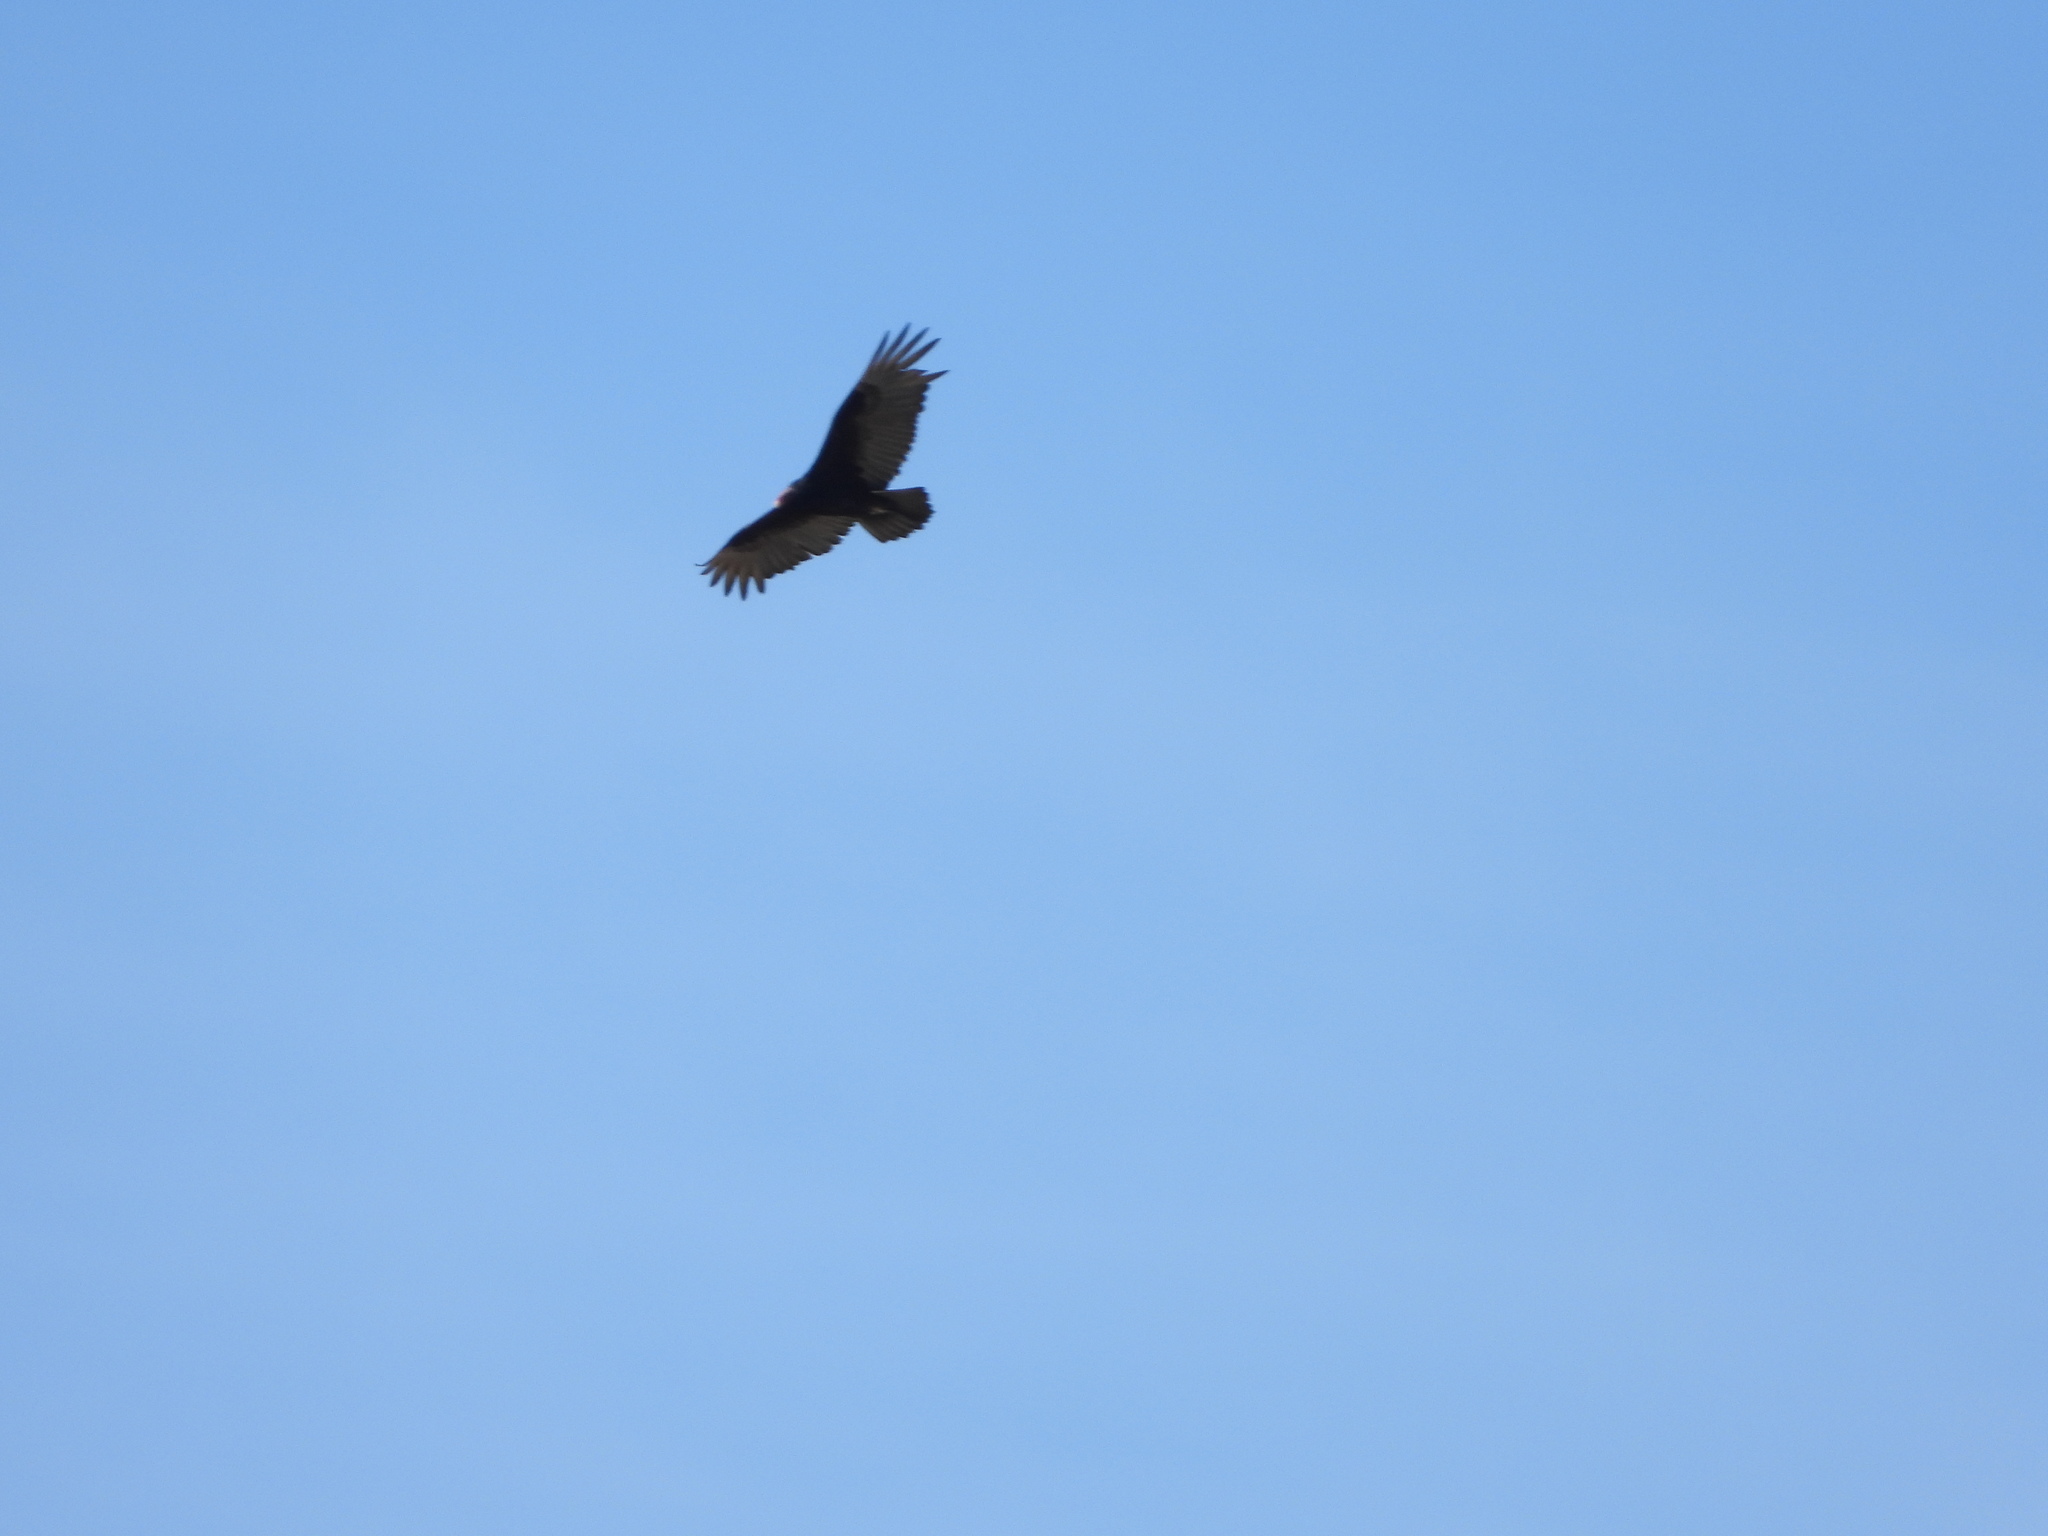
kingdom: Animalia
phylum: Chordata
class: Aves
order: Accipitriformes
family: Cathartidae
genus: Cathartes
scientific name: Cathartes aura
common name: Turkey vulture
